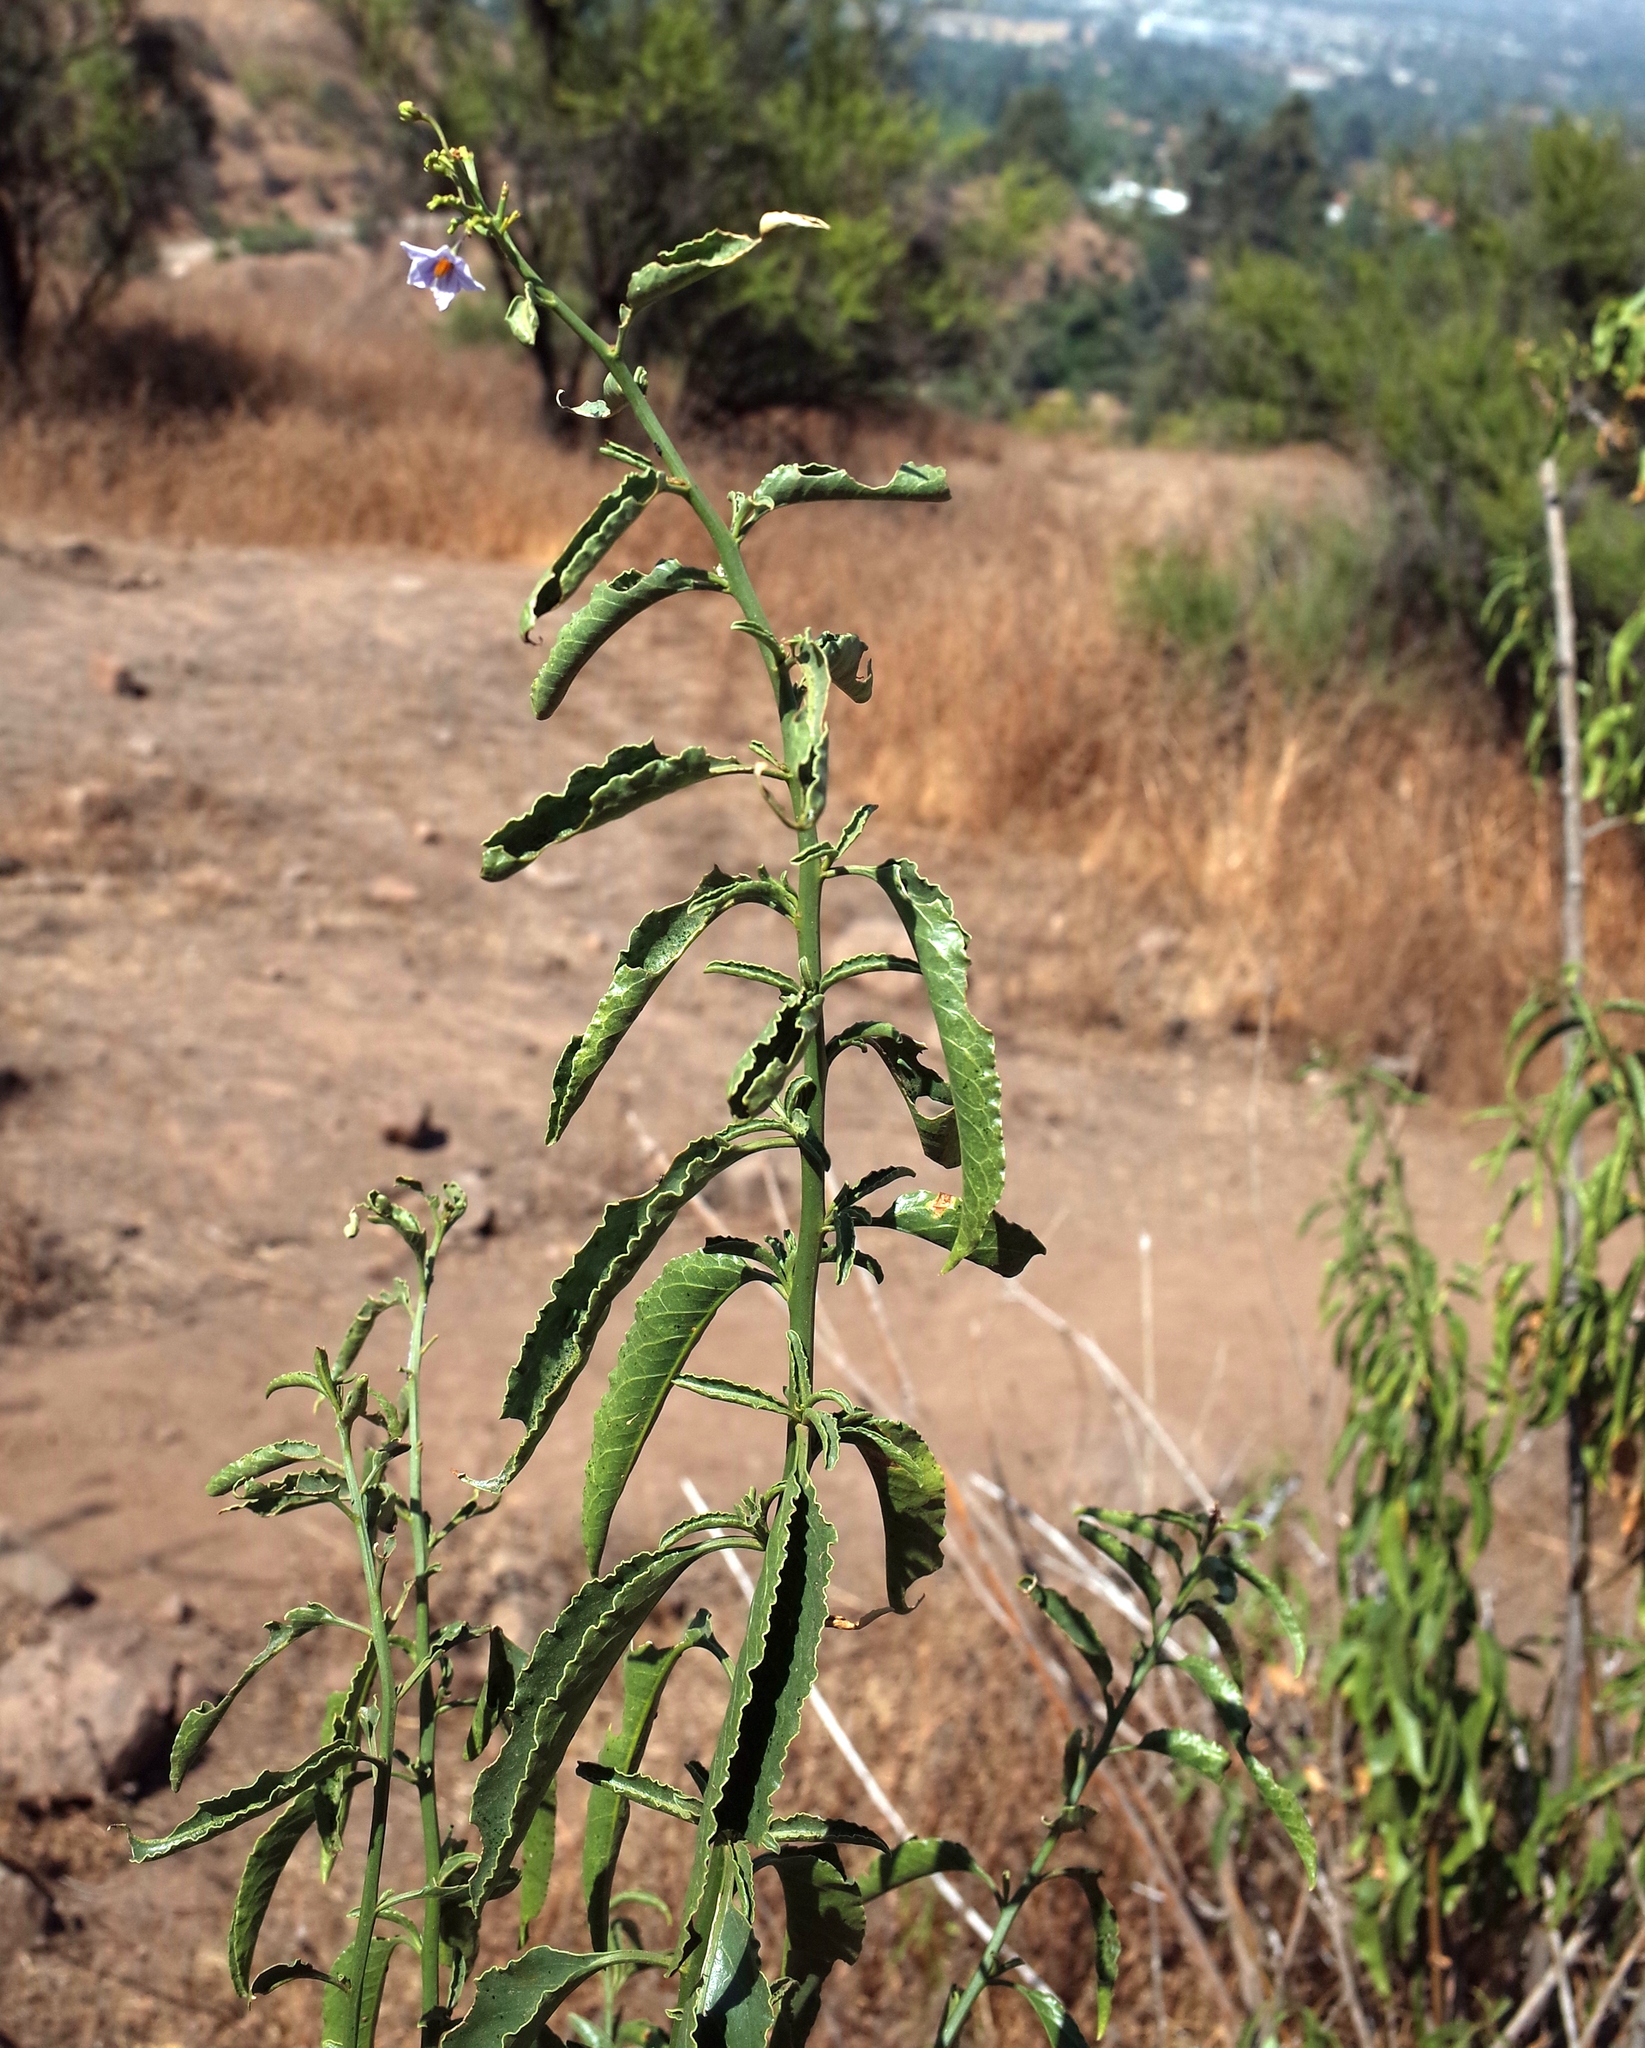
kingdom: Plantae
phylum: Tracheophyta
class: Magnoliopsida
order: Solanales
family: Solanaceae
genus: Solanum
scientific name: Solanum crispum
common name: Chilean nightshade
